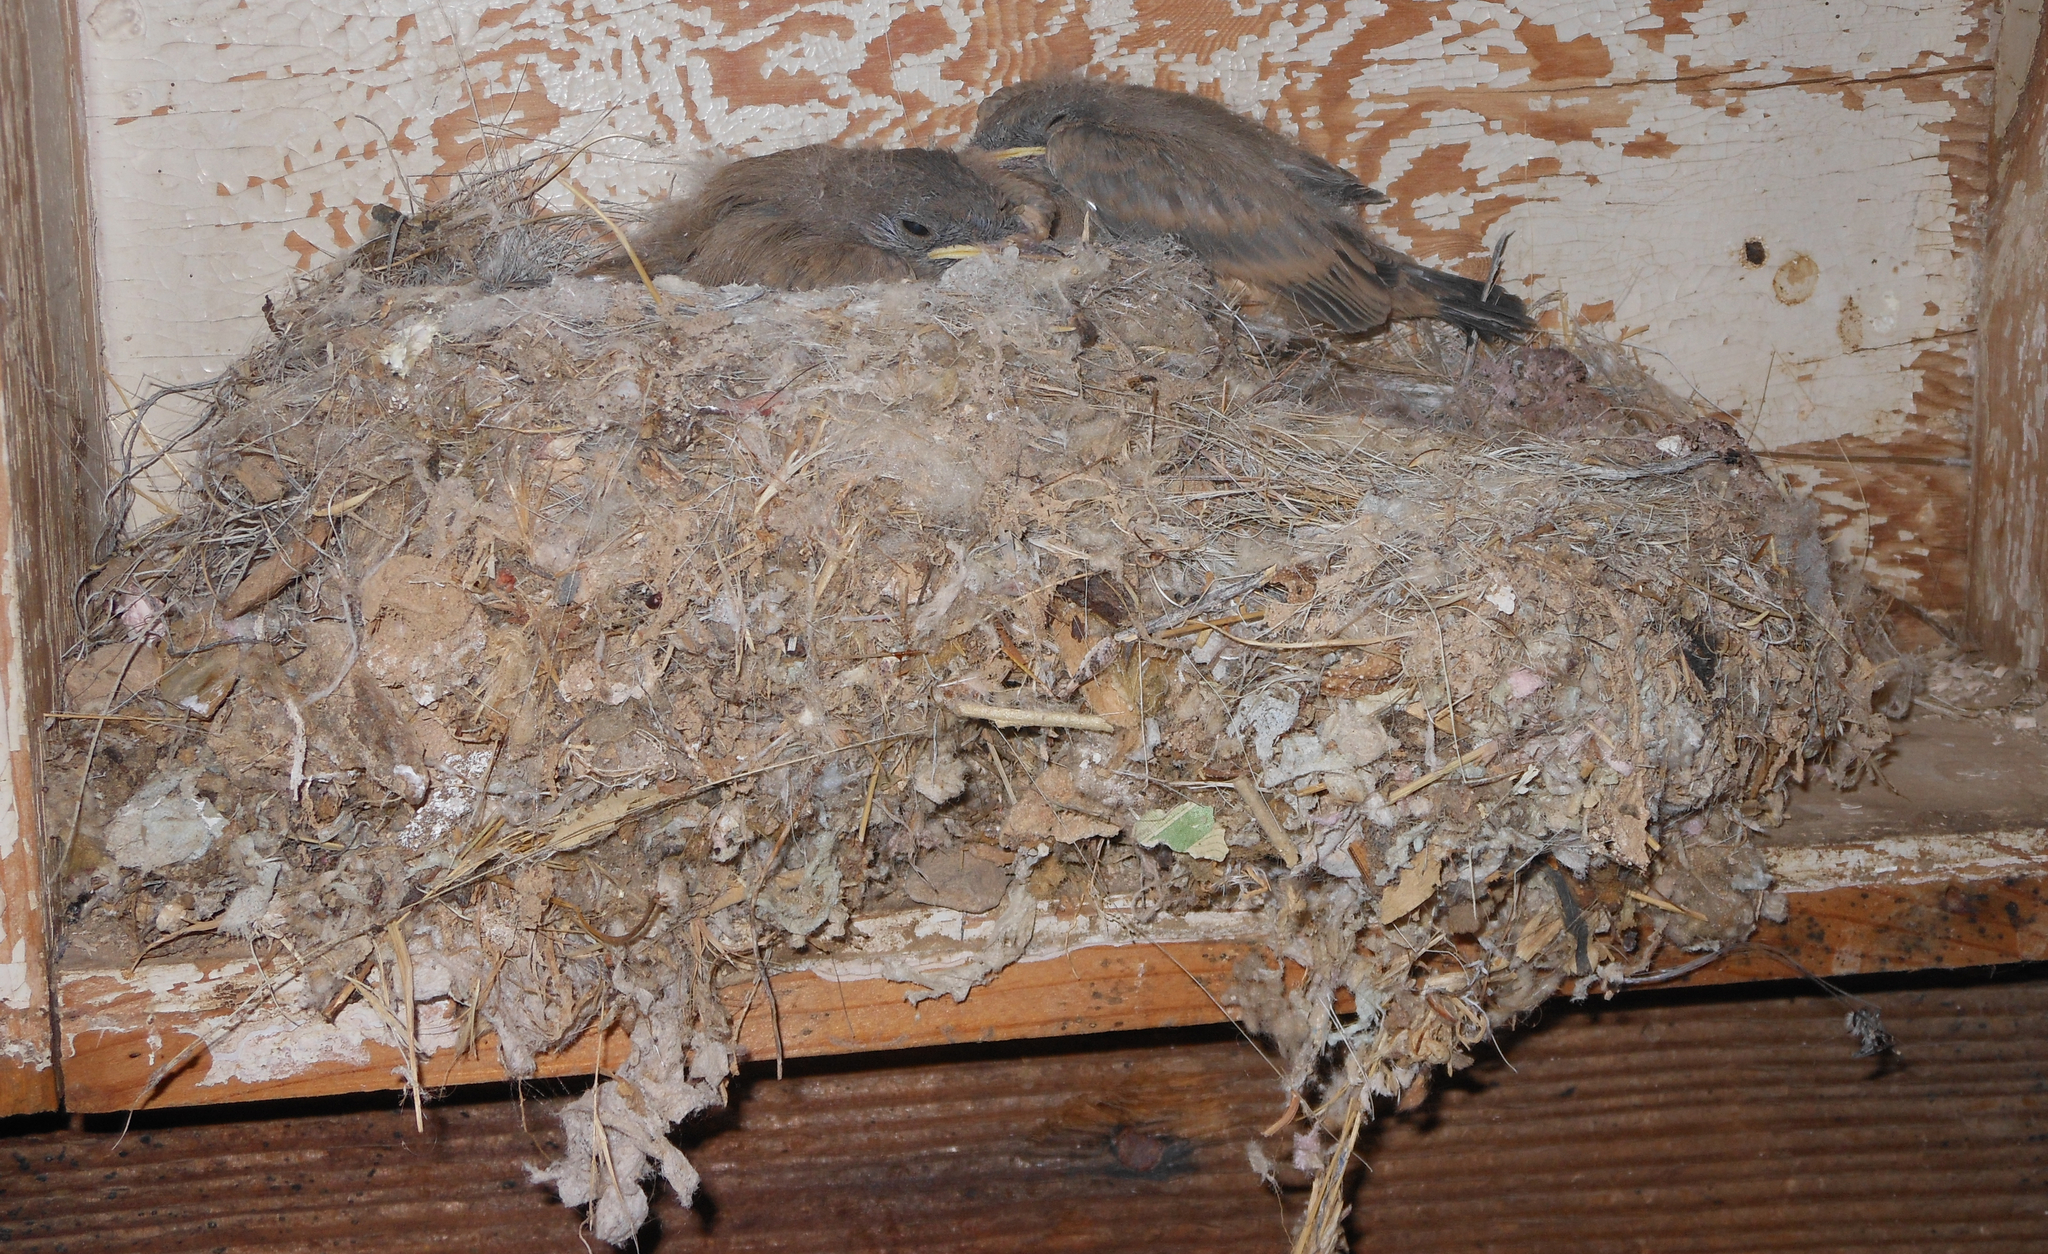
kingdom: Animalia
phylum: Chordata
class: Aves
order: Passeriformes
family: Tyrannidae
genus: Sayornis
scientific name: Sayornis saya
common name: Say's phoebe
